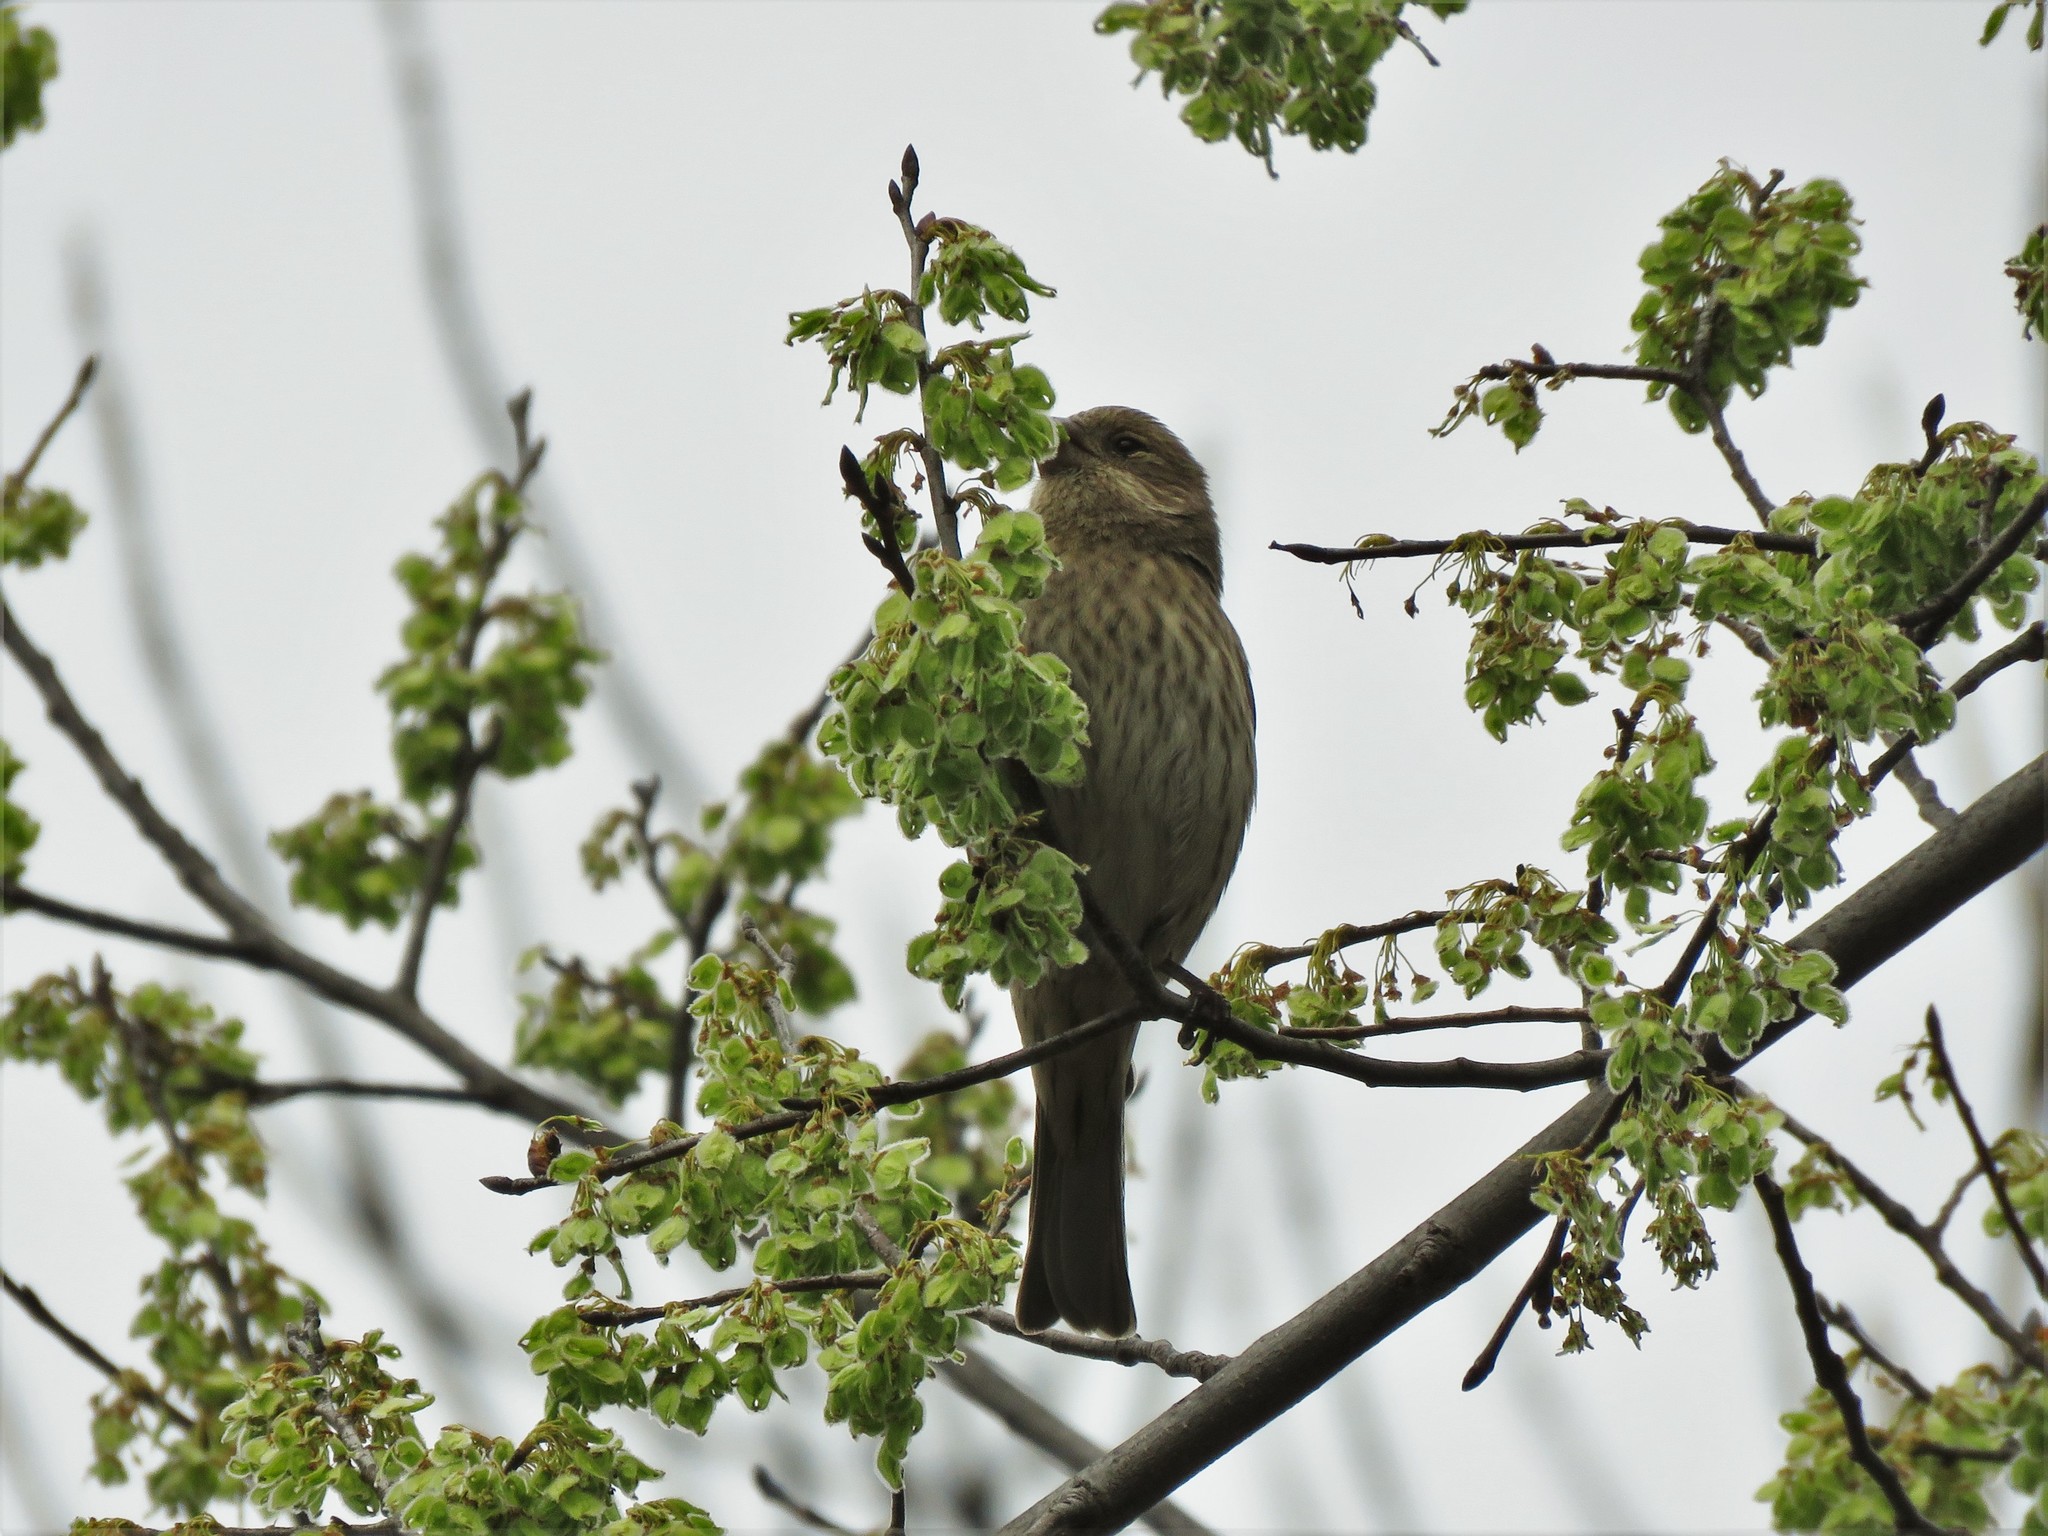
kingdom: Animalia
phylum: Chordata
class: Aves
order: Passeriformes
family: Fringillidae
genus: Haemorhous
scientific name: Haemorhous mexicanus
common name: House finch
